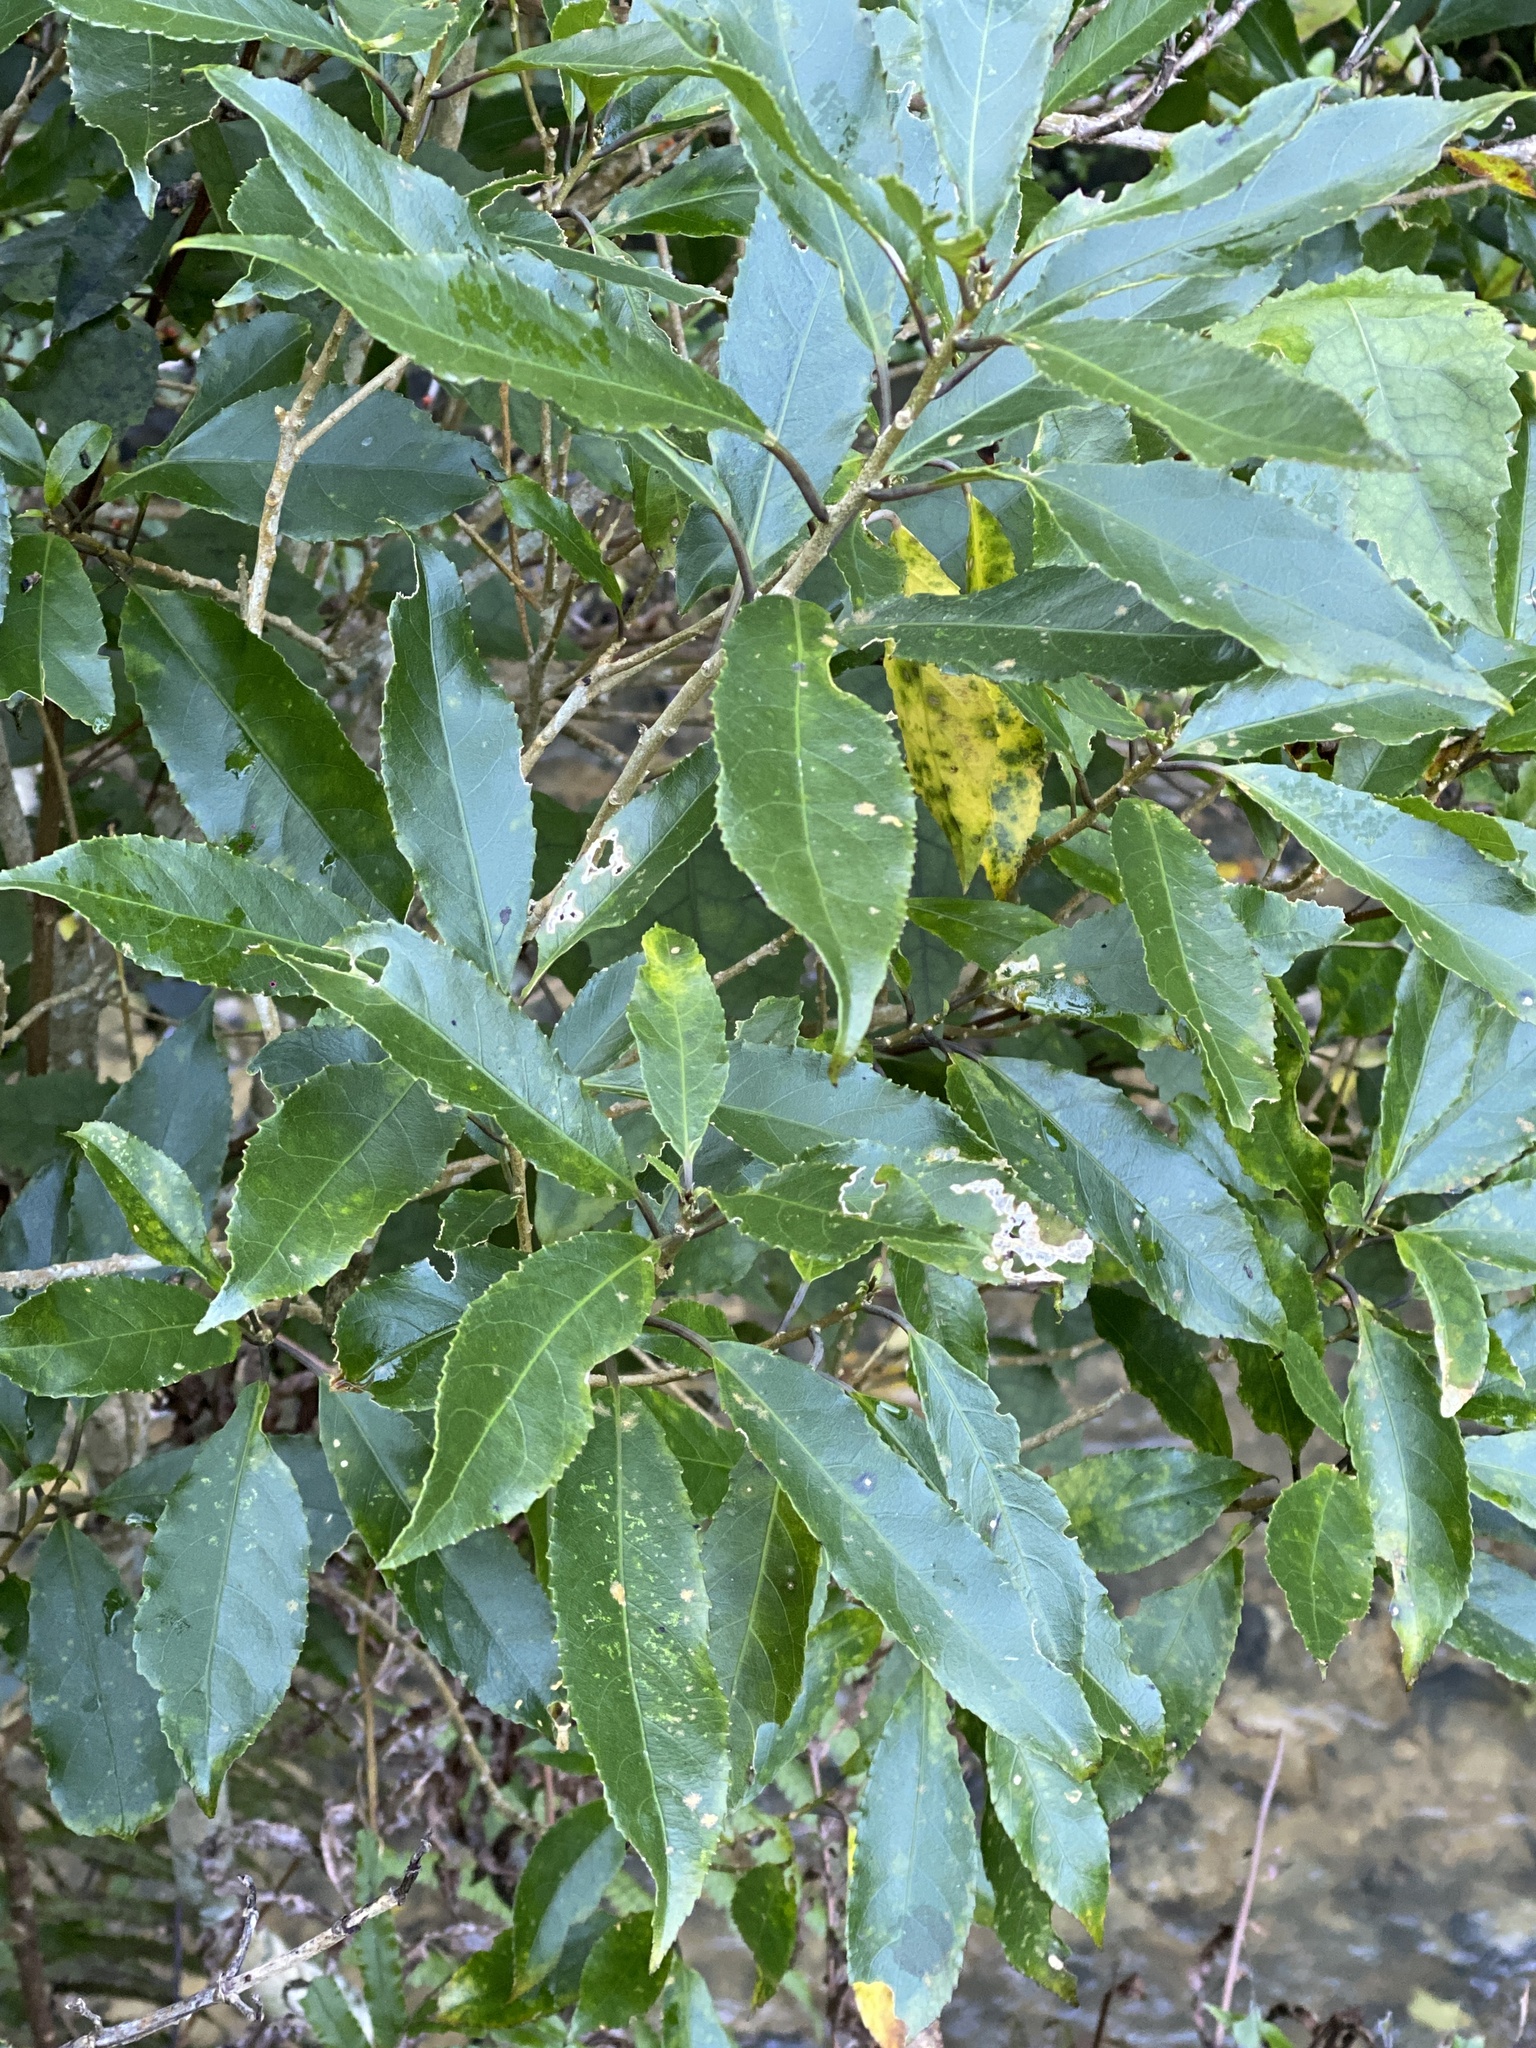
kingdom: Plantae
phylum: Tracheophyta
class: Magnoliopsida
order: Malpighiales
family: Violaceae
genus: Melicytus
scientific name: Melicytus ramiflorus
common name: Mahoe
